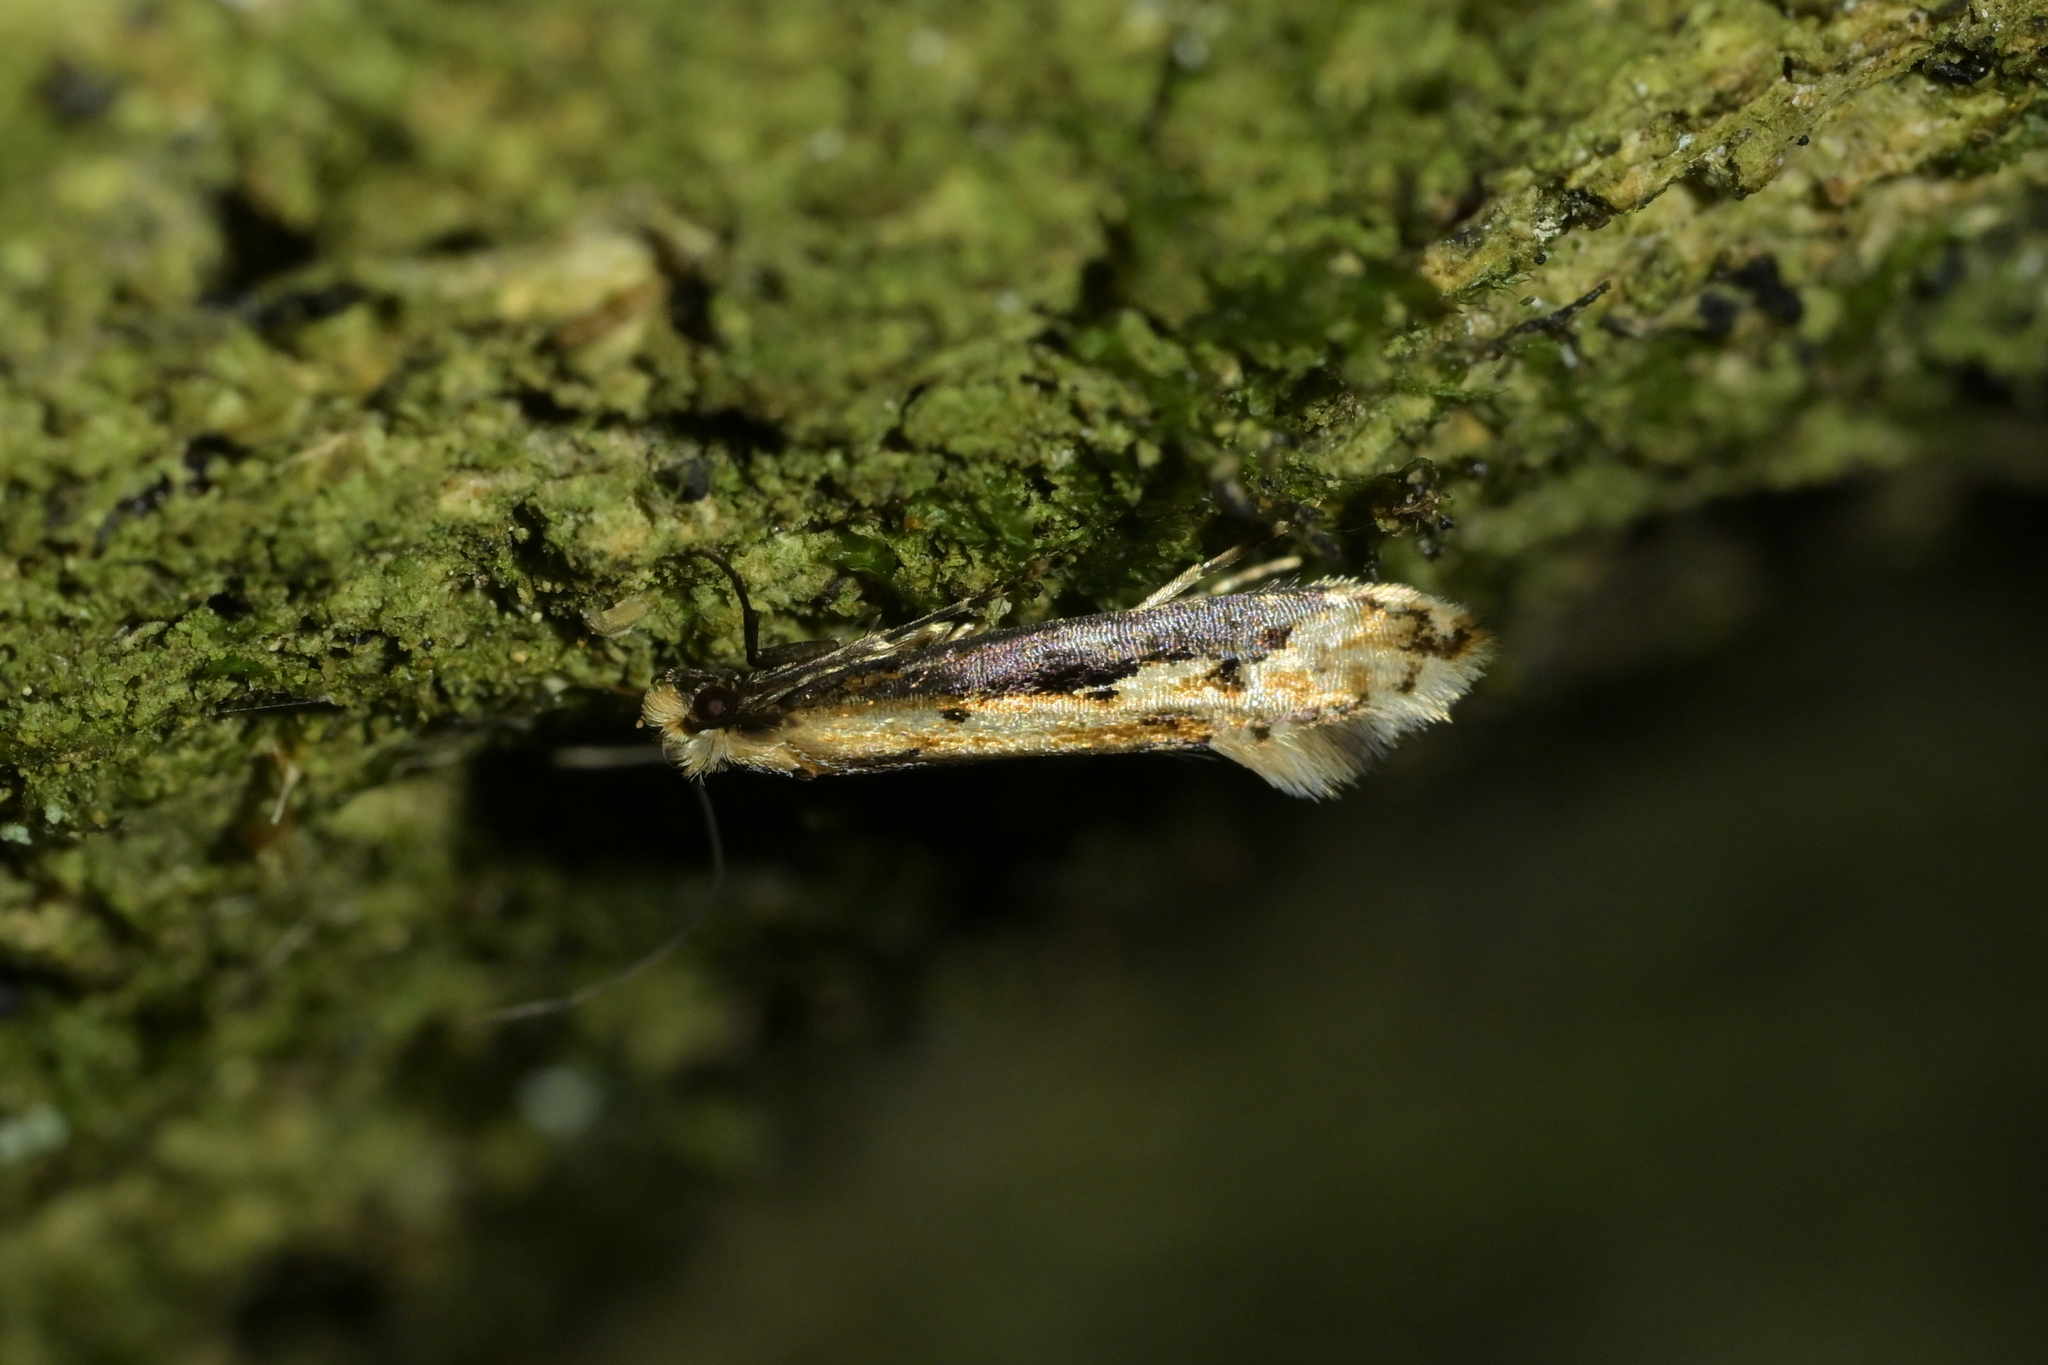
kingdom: Animalia
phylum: Arthropoda
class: Insecta
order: Lepidoptera
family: Tineidae
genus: Crypsitricha
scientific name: Crypsitricha generosa
